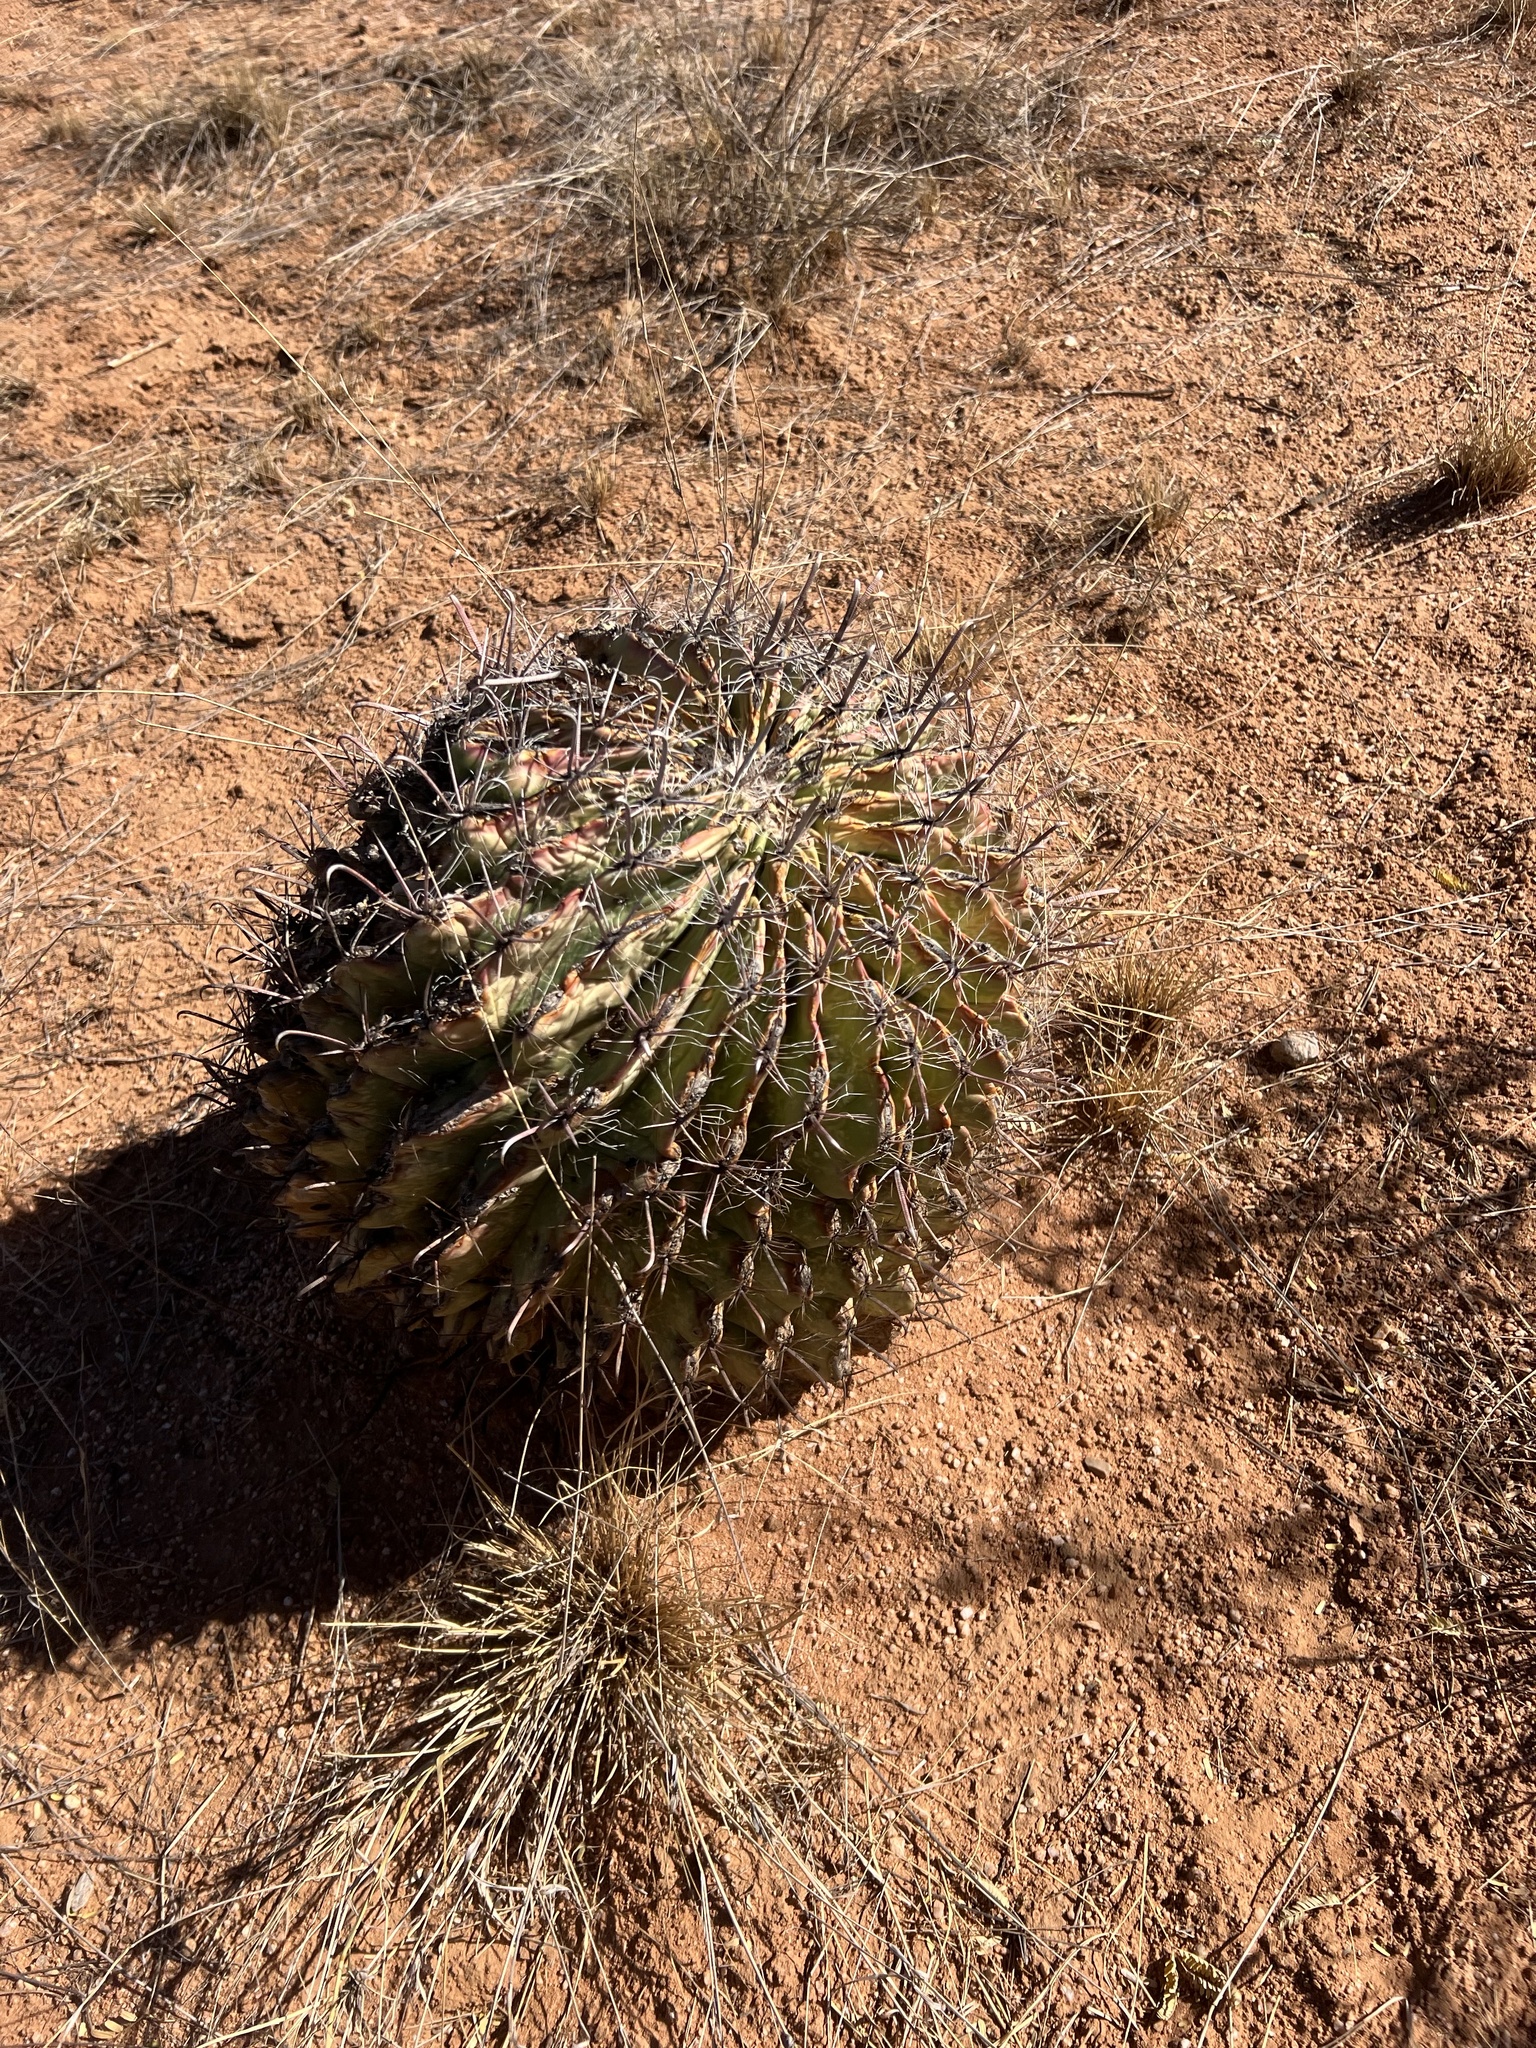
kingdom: Plantae
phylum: Tracheophyta
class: Magnoliopsida
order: Caryophyllales
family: Cactaceae
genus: Ferocactus
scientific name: Ferocactus wislizeni
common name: Candy barrel cactus
